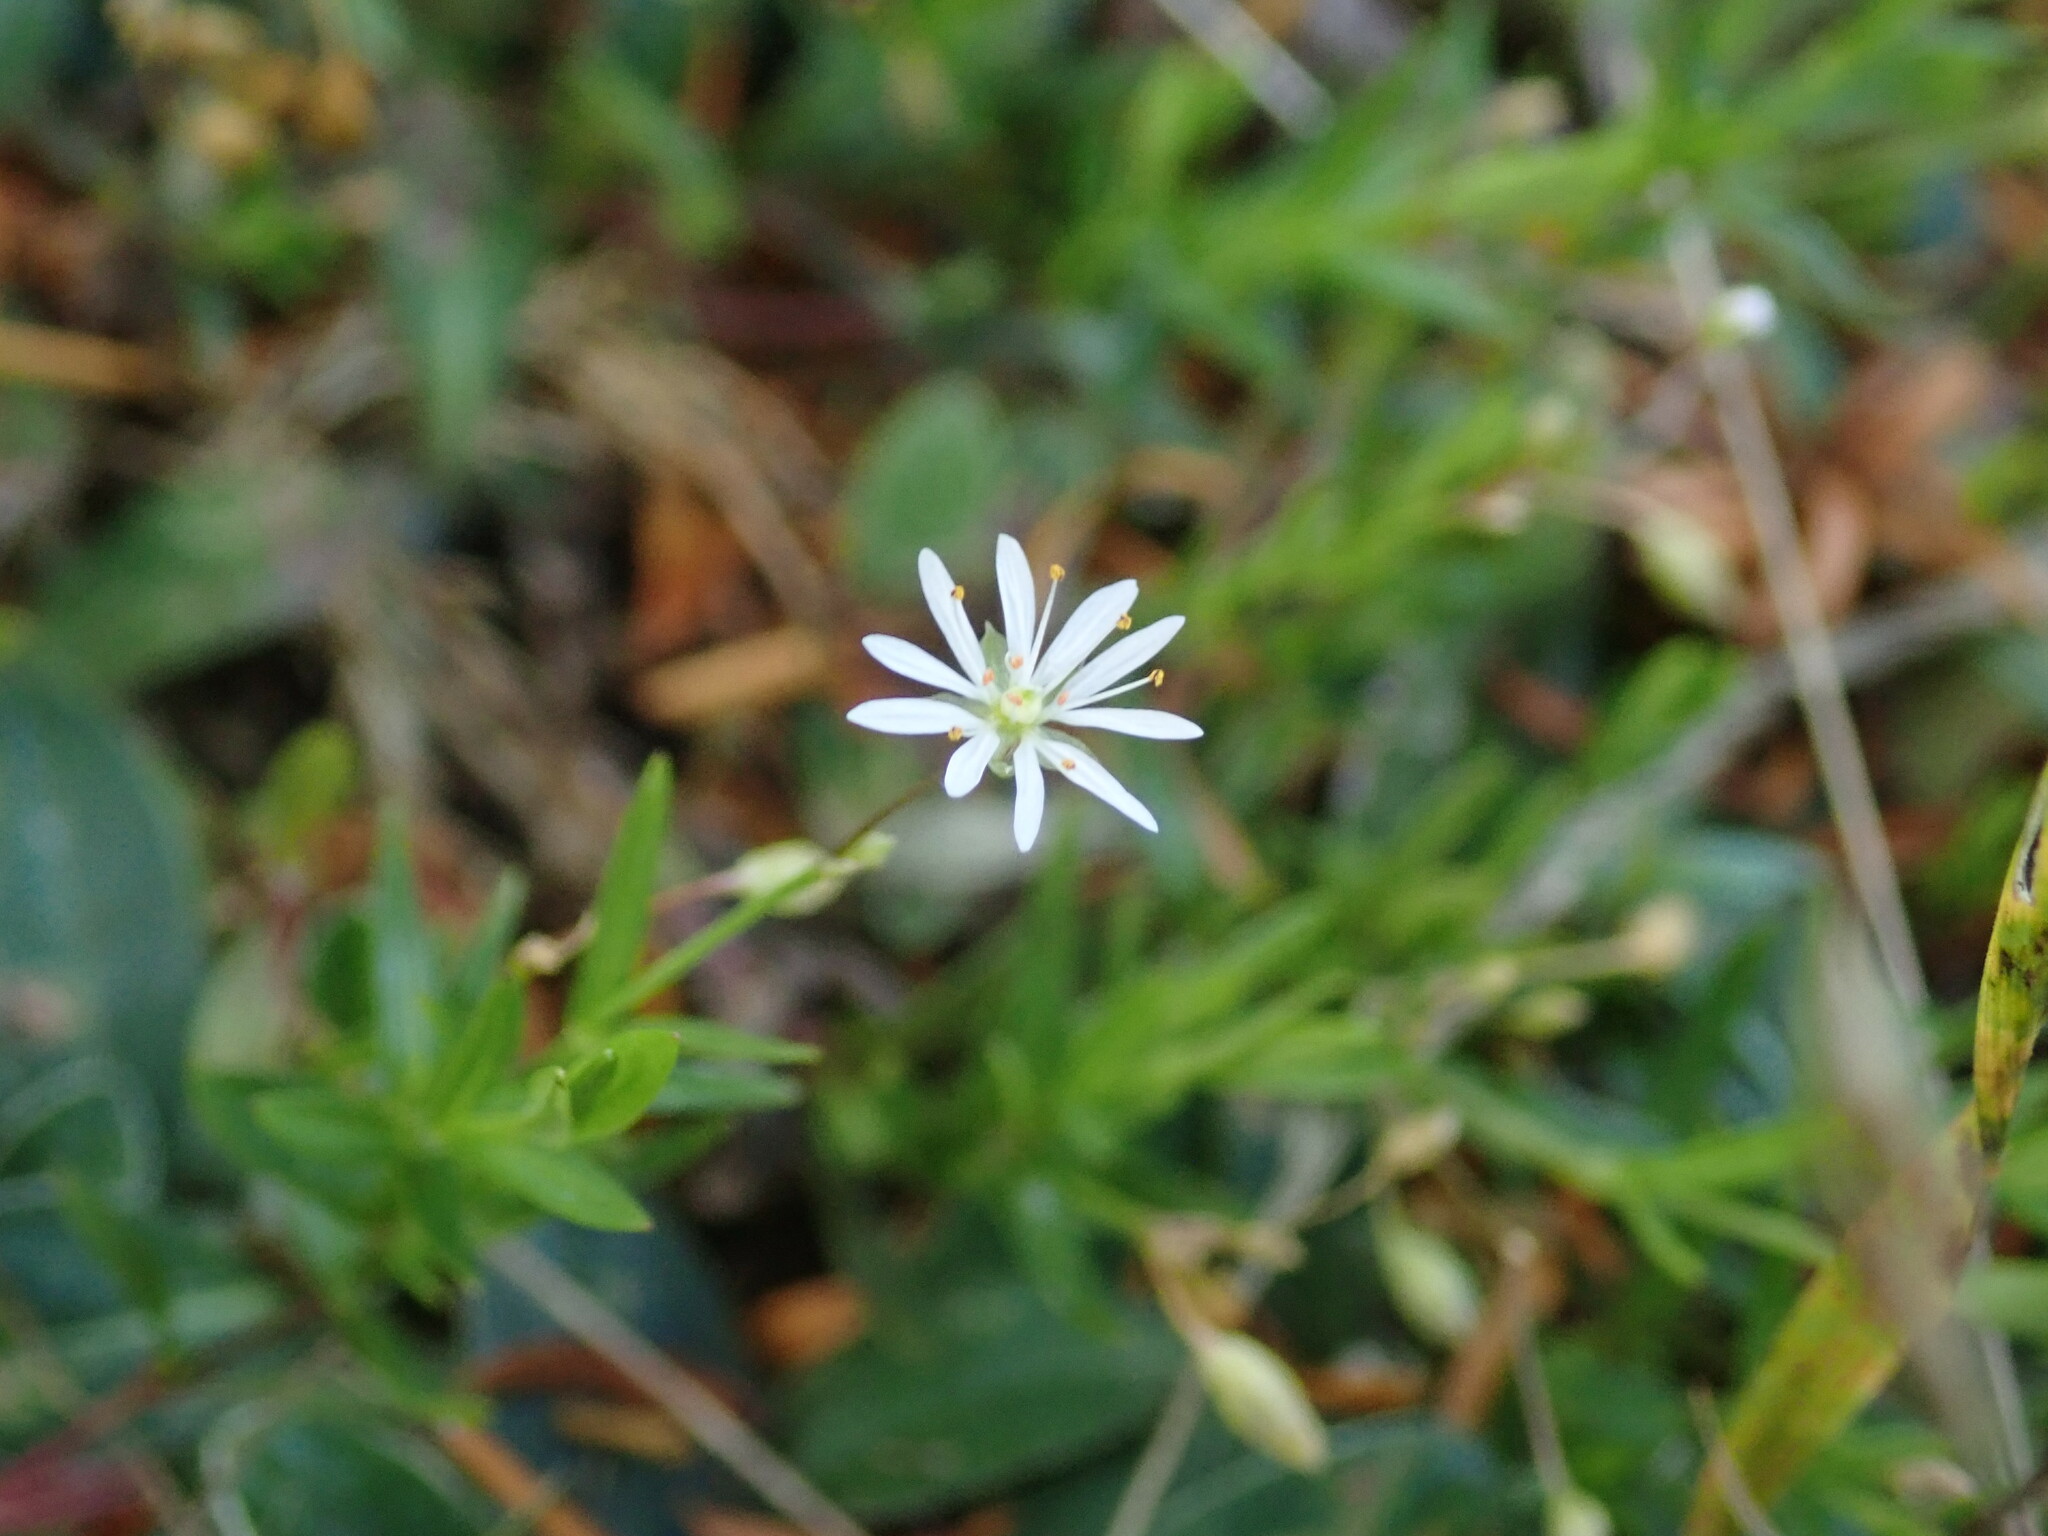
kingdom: Plantae
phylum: Tracheophyta
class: Magnoliopsida
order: Caryophyllales
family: Caryophyllaceae
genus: Stellaria
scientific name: Stellaria graminea
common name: Grass-like starwort
